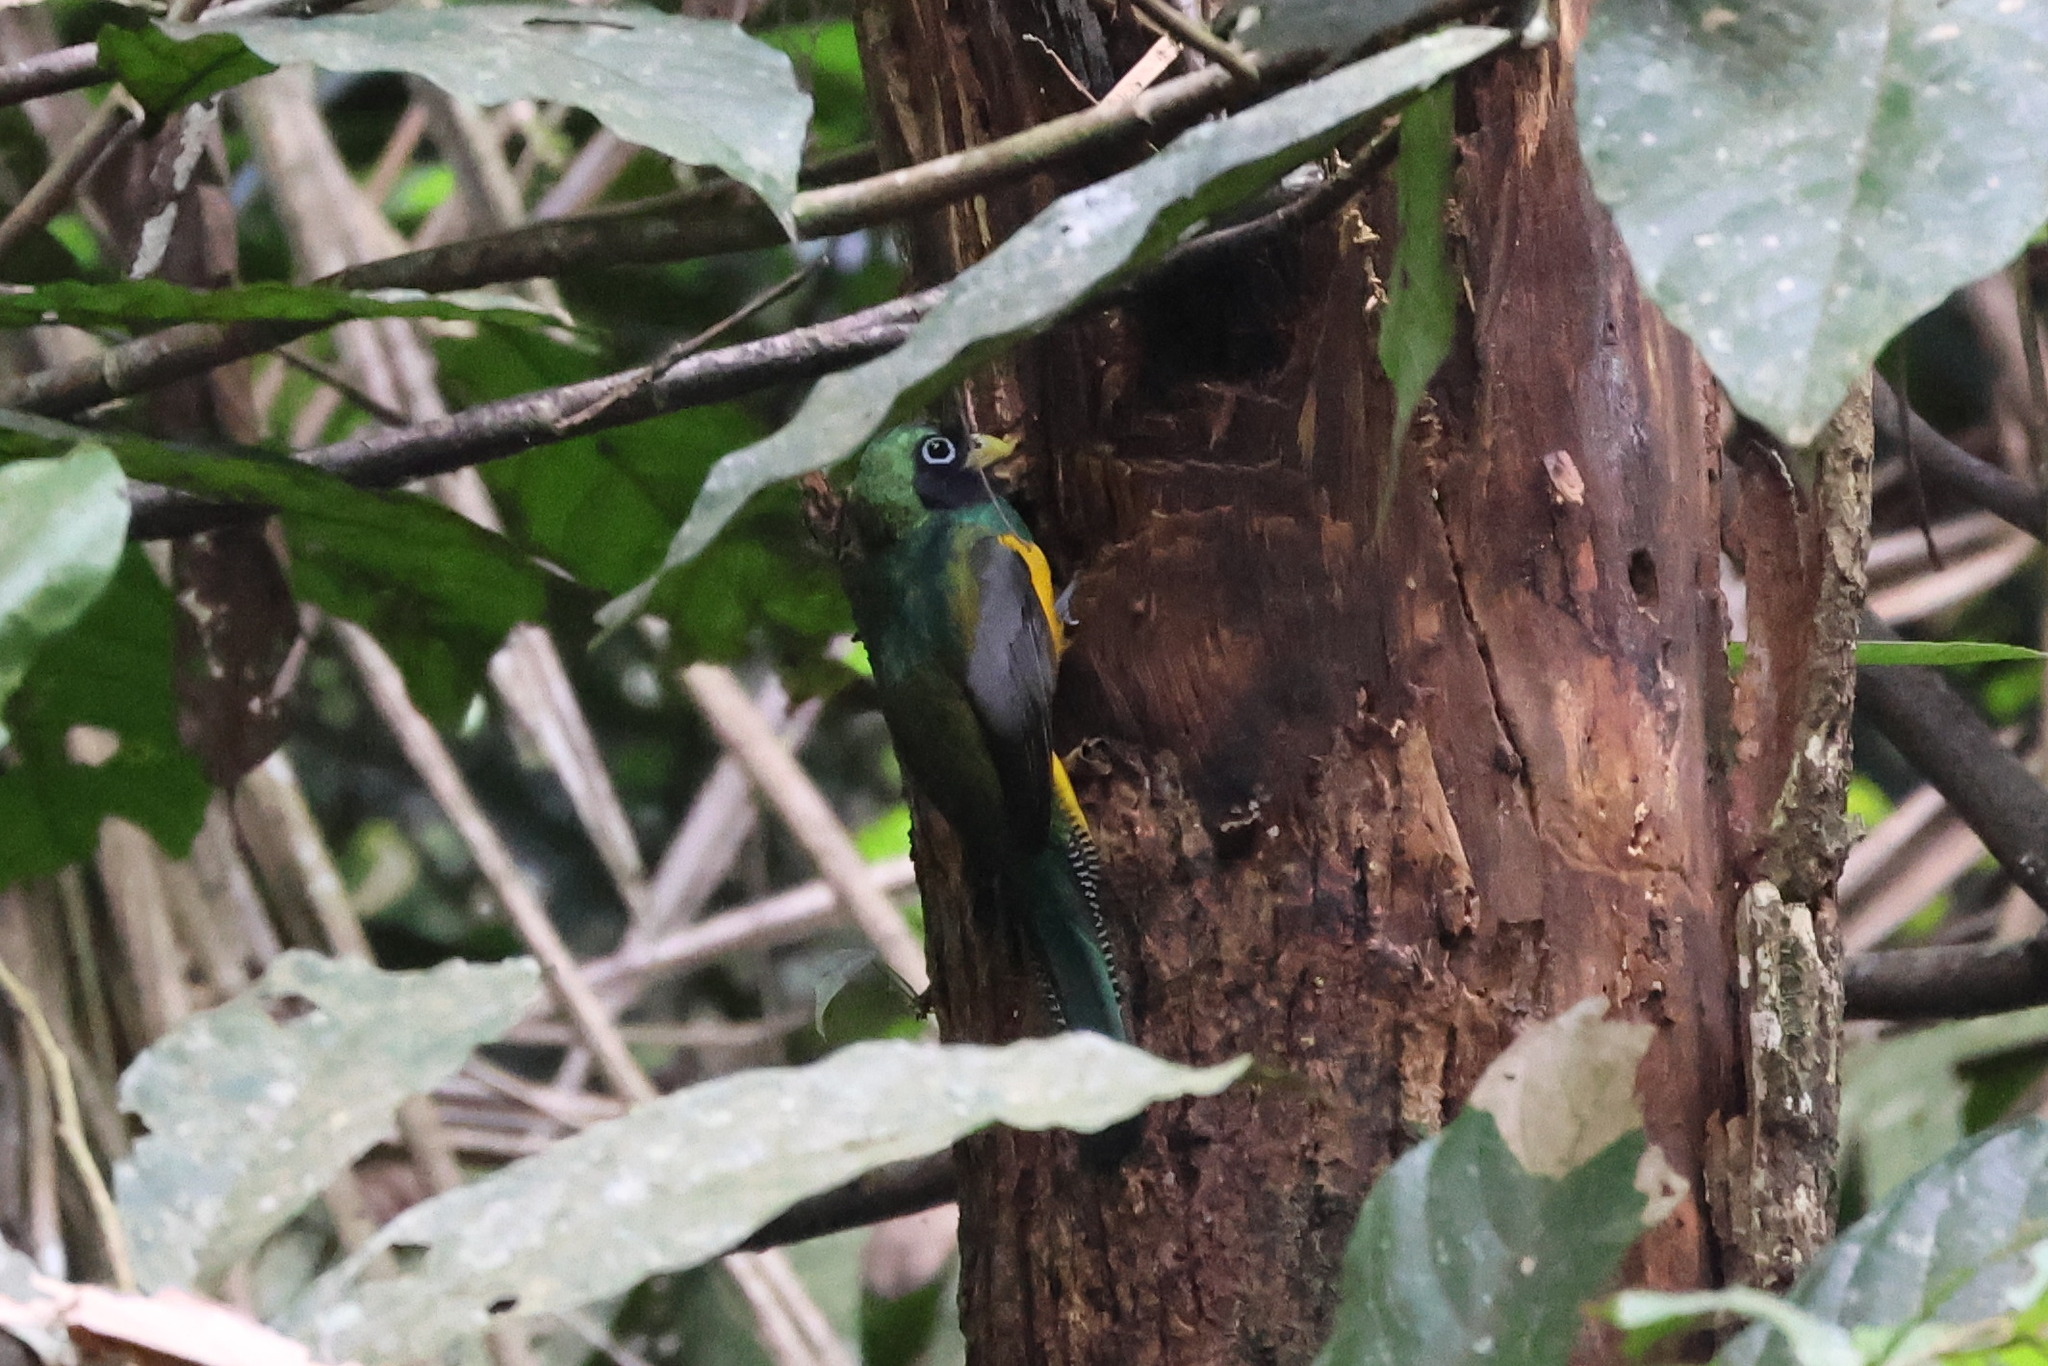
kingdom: Animalia
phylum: Chordata
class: Aves
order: Trogoniformes
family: Trogonidae
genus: Trogon
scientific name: Trogon rufus
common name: Black-throated trogon
